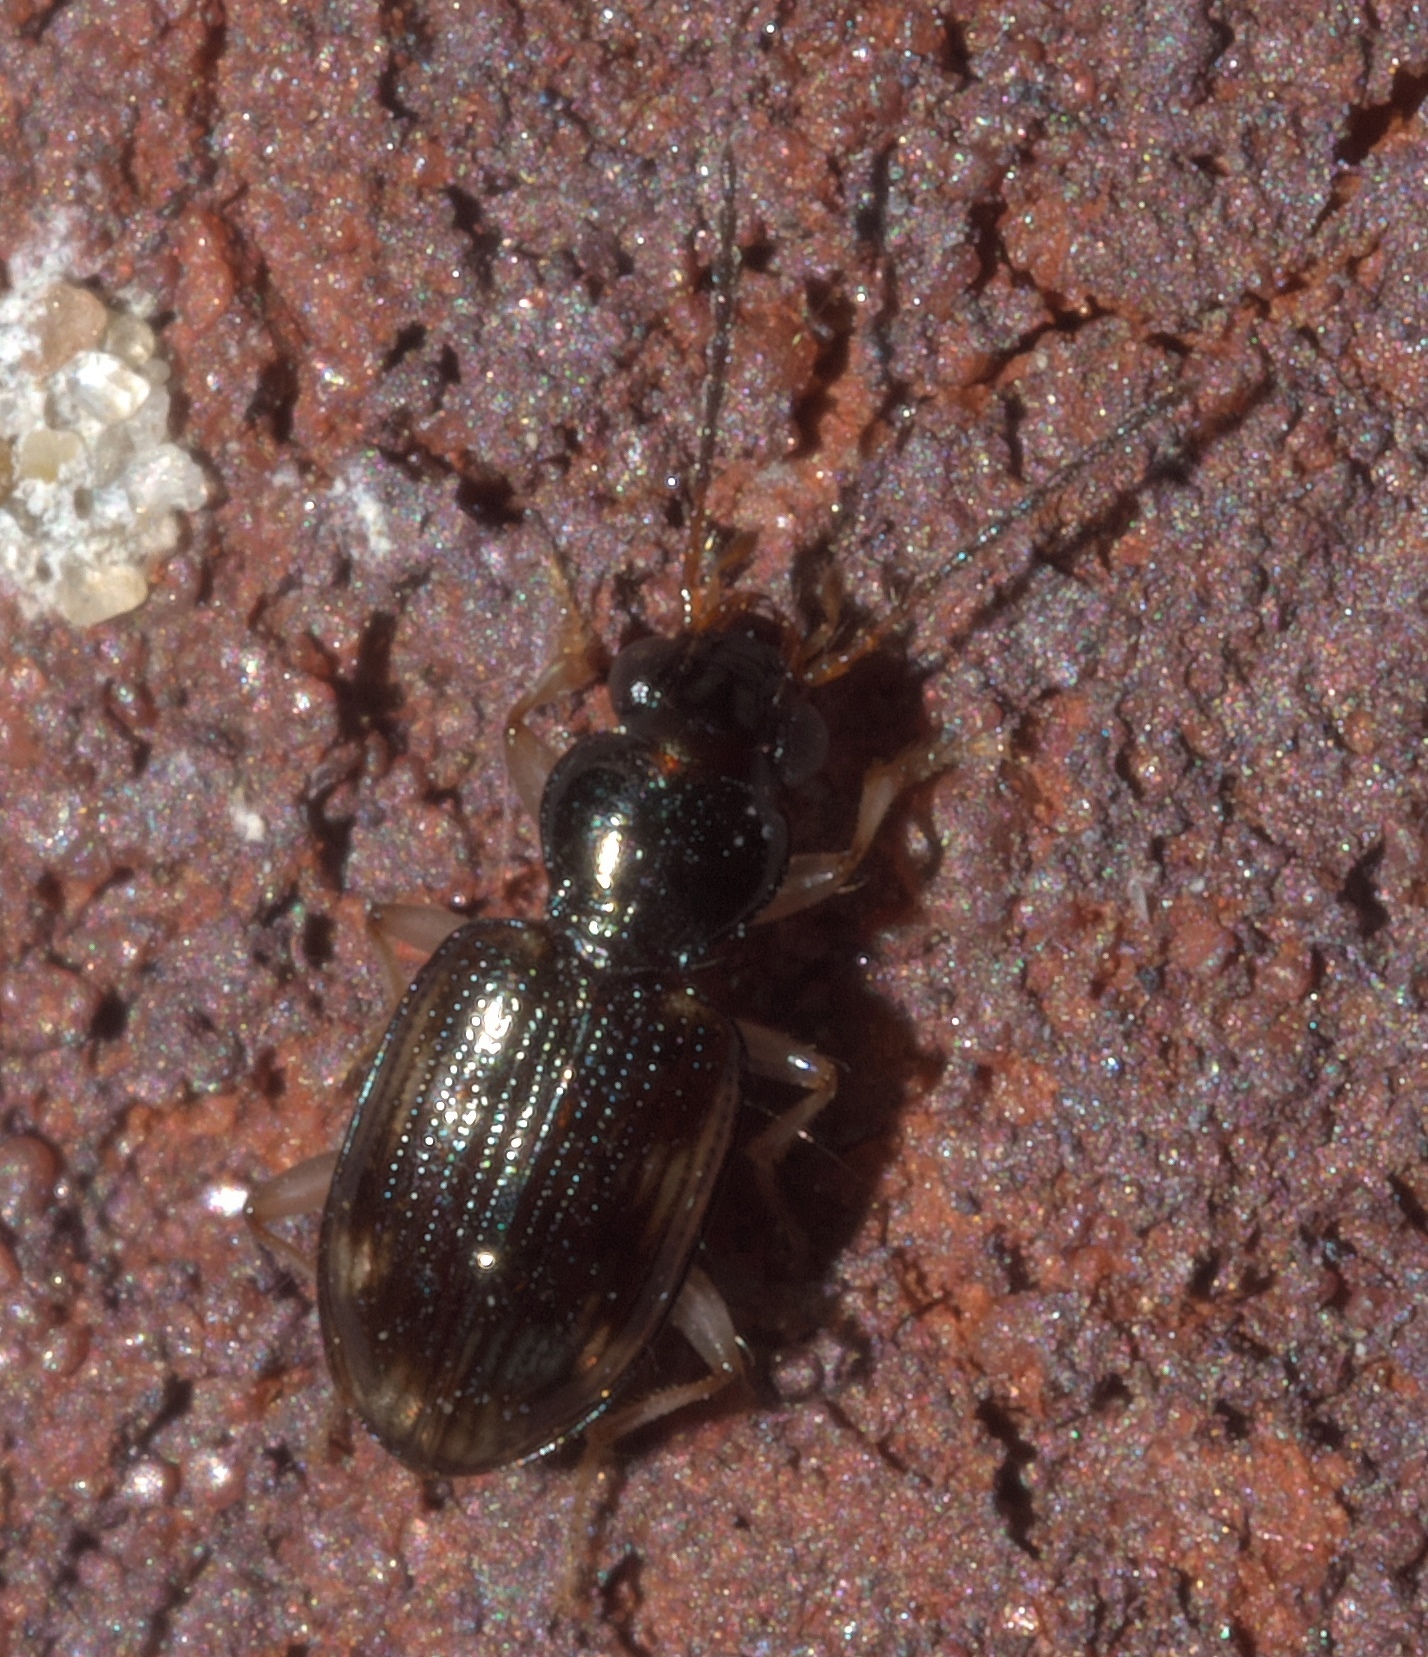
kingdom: Animalia
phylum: Arthropoda
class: Insecta
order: Coleoptera
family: Carabidae
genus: Bembidion
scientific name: Bembidion affine
